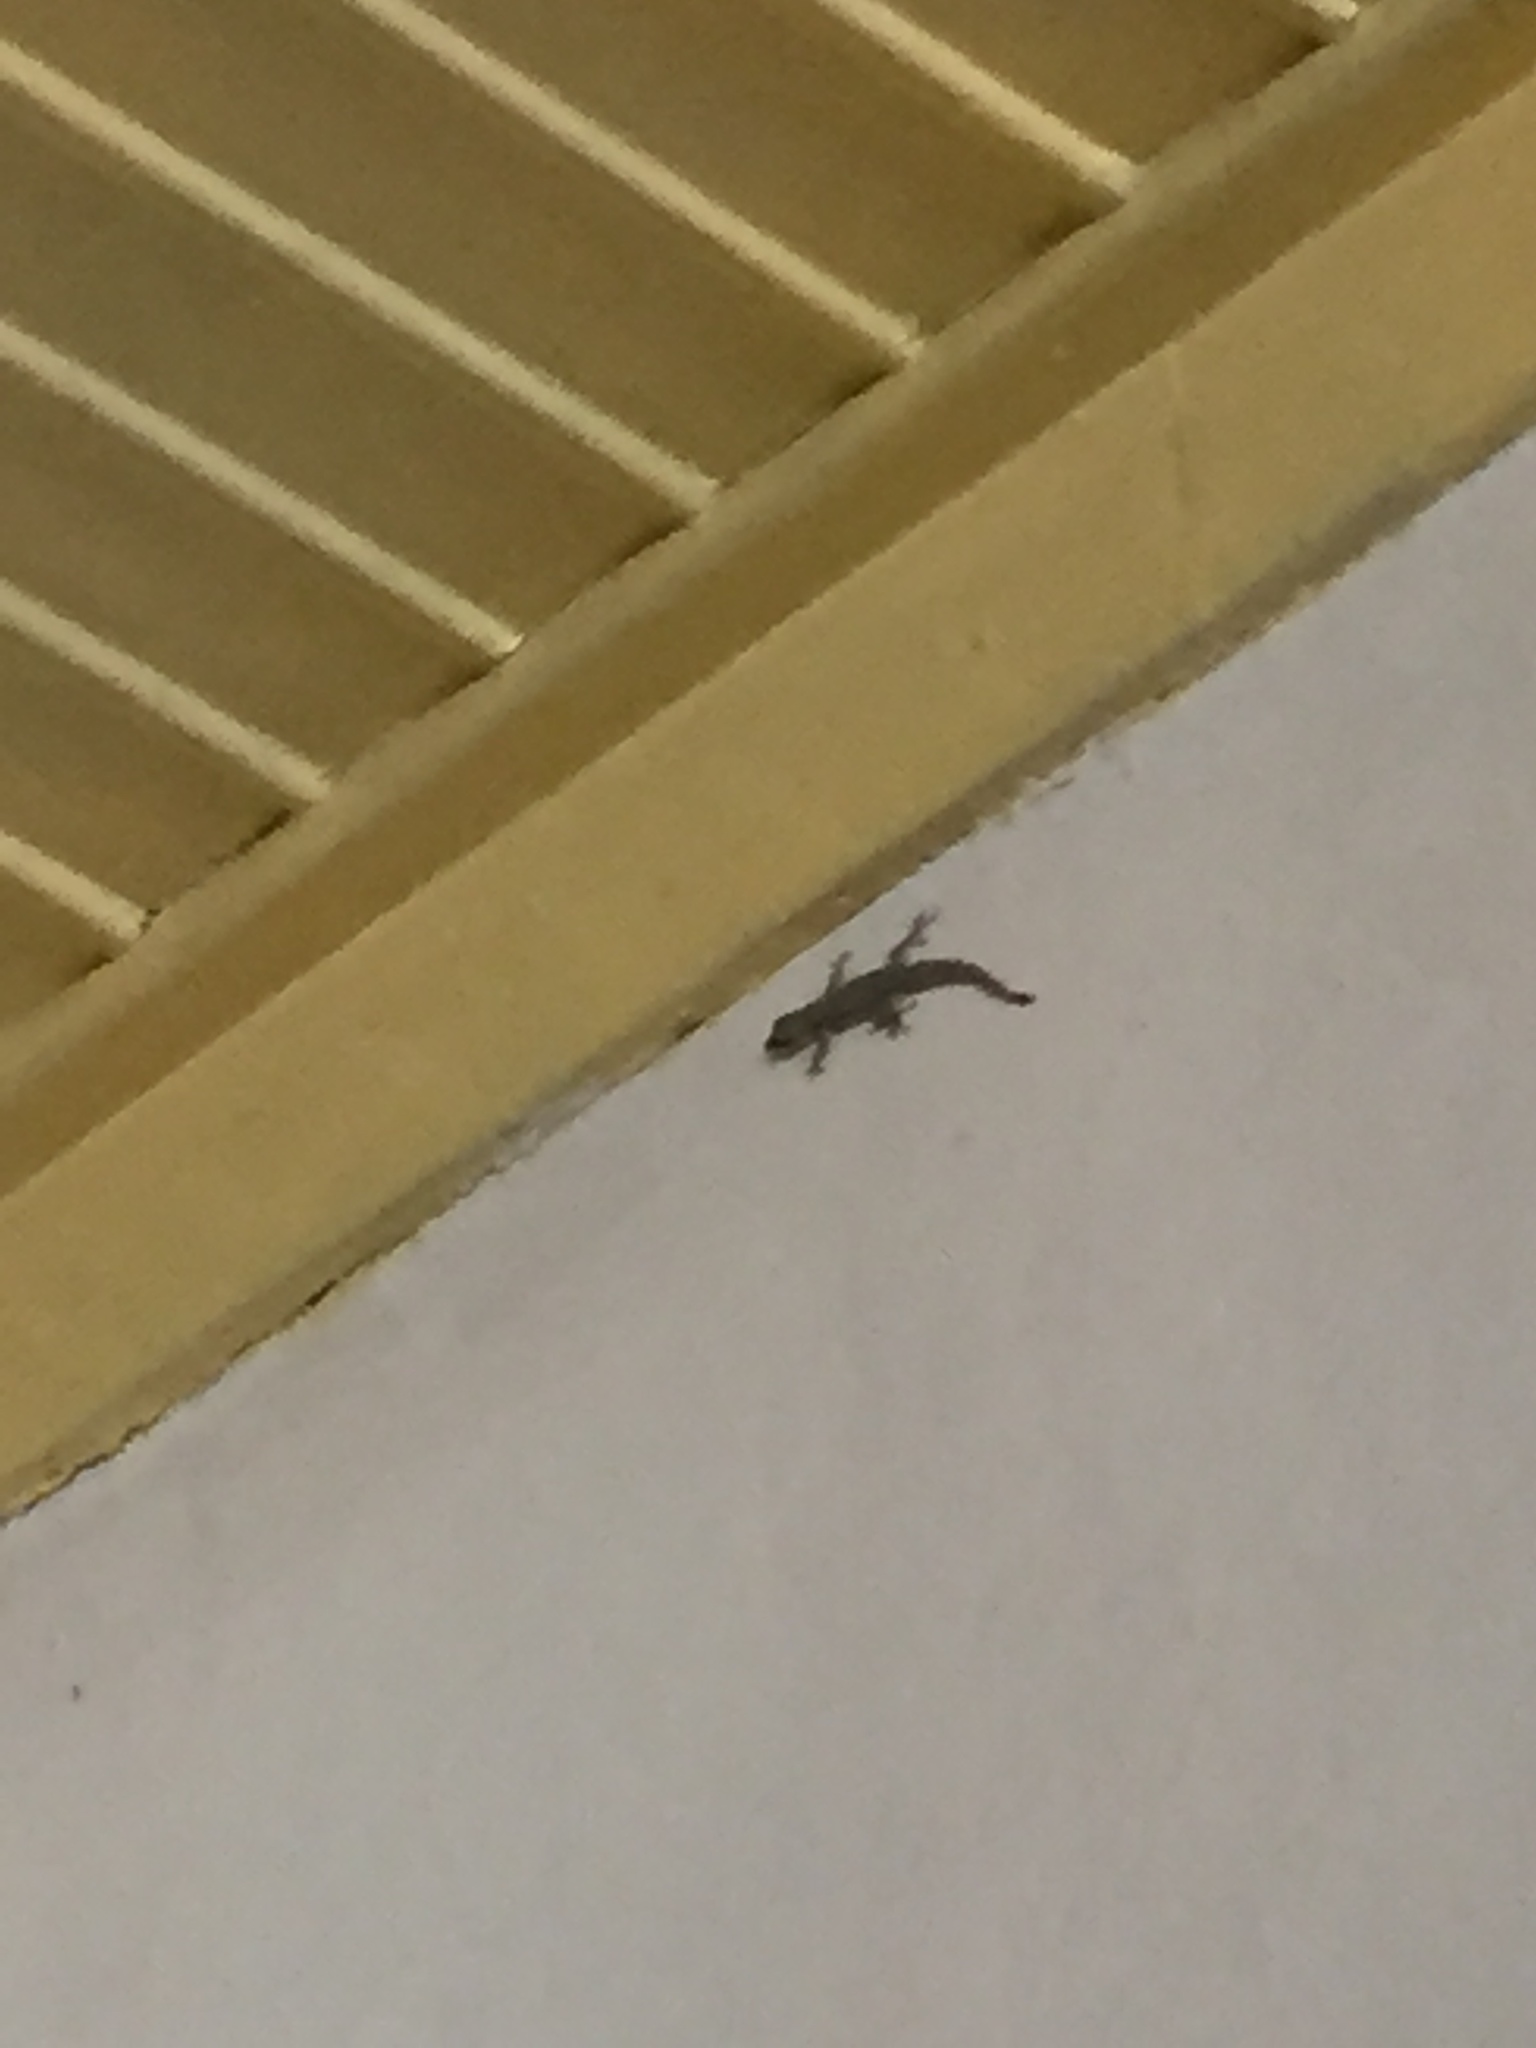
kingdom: Animalia
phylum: Chordata
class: Squamata
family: Gekkonidae
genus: Hemidactylus
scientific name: Hemidactylus platyurus
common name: Flat-tailed house gecko
